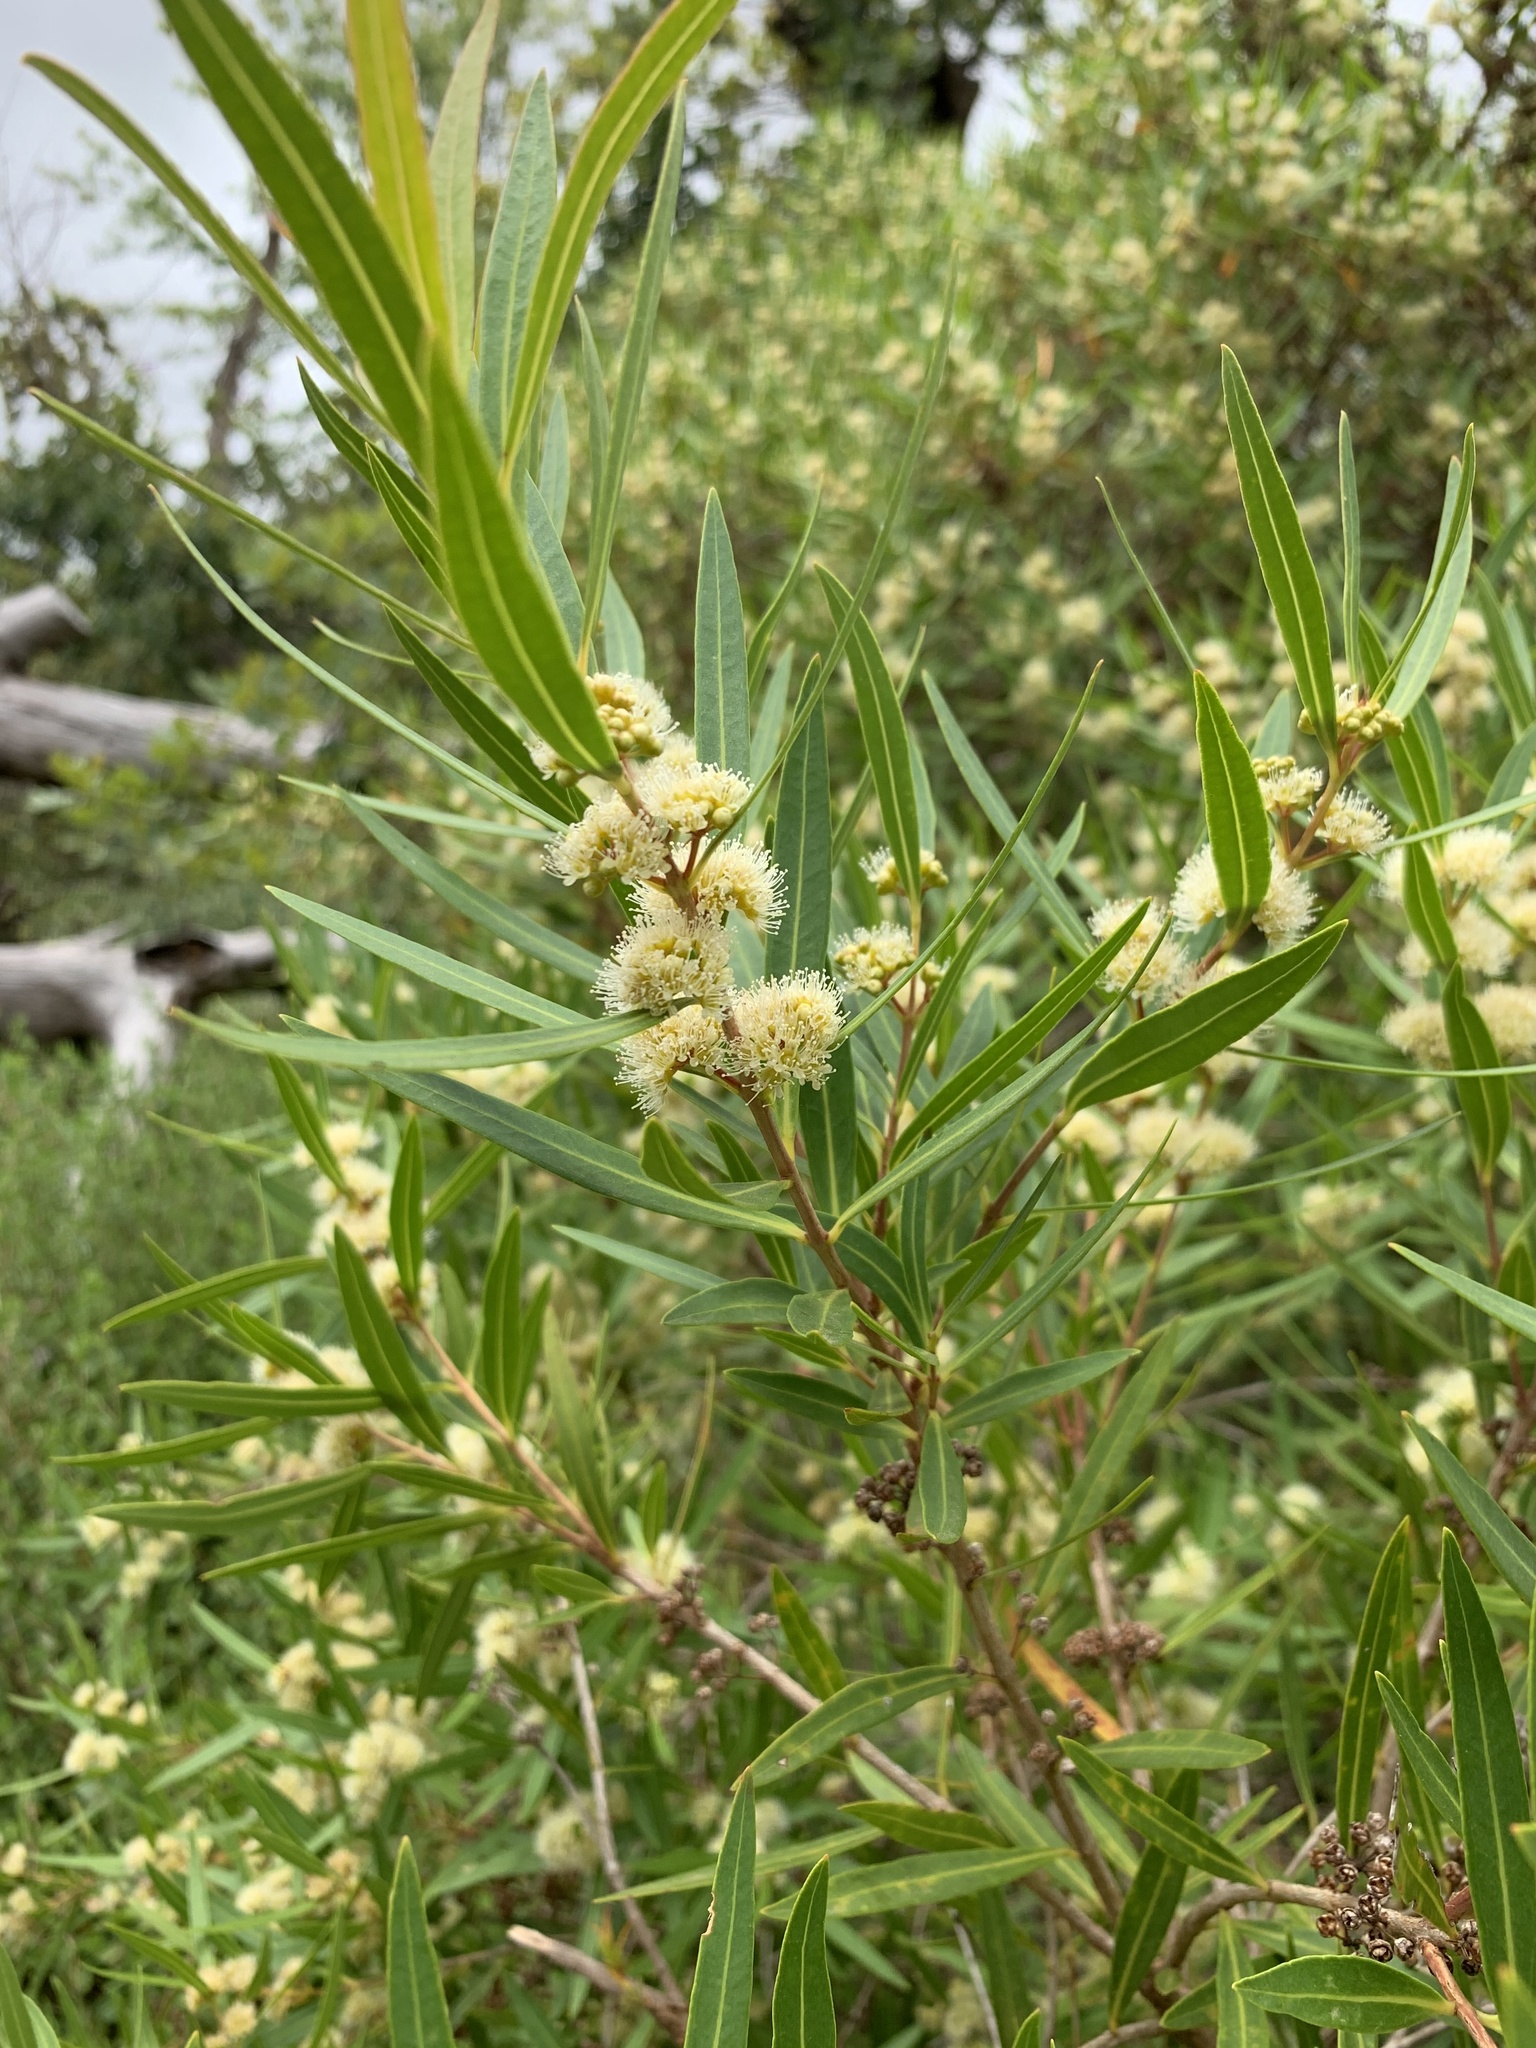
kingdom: Plantae
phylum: Tracheophyta
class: Magnoliopsida
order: Myrtales
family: Myrtaceae
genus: Callistemon
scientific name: Callistemon lanceolatus
